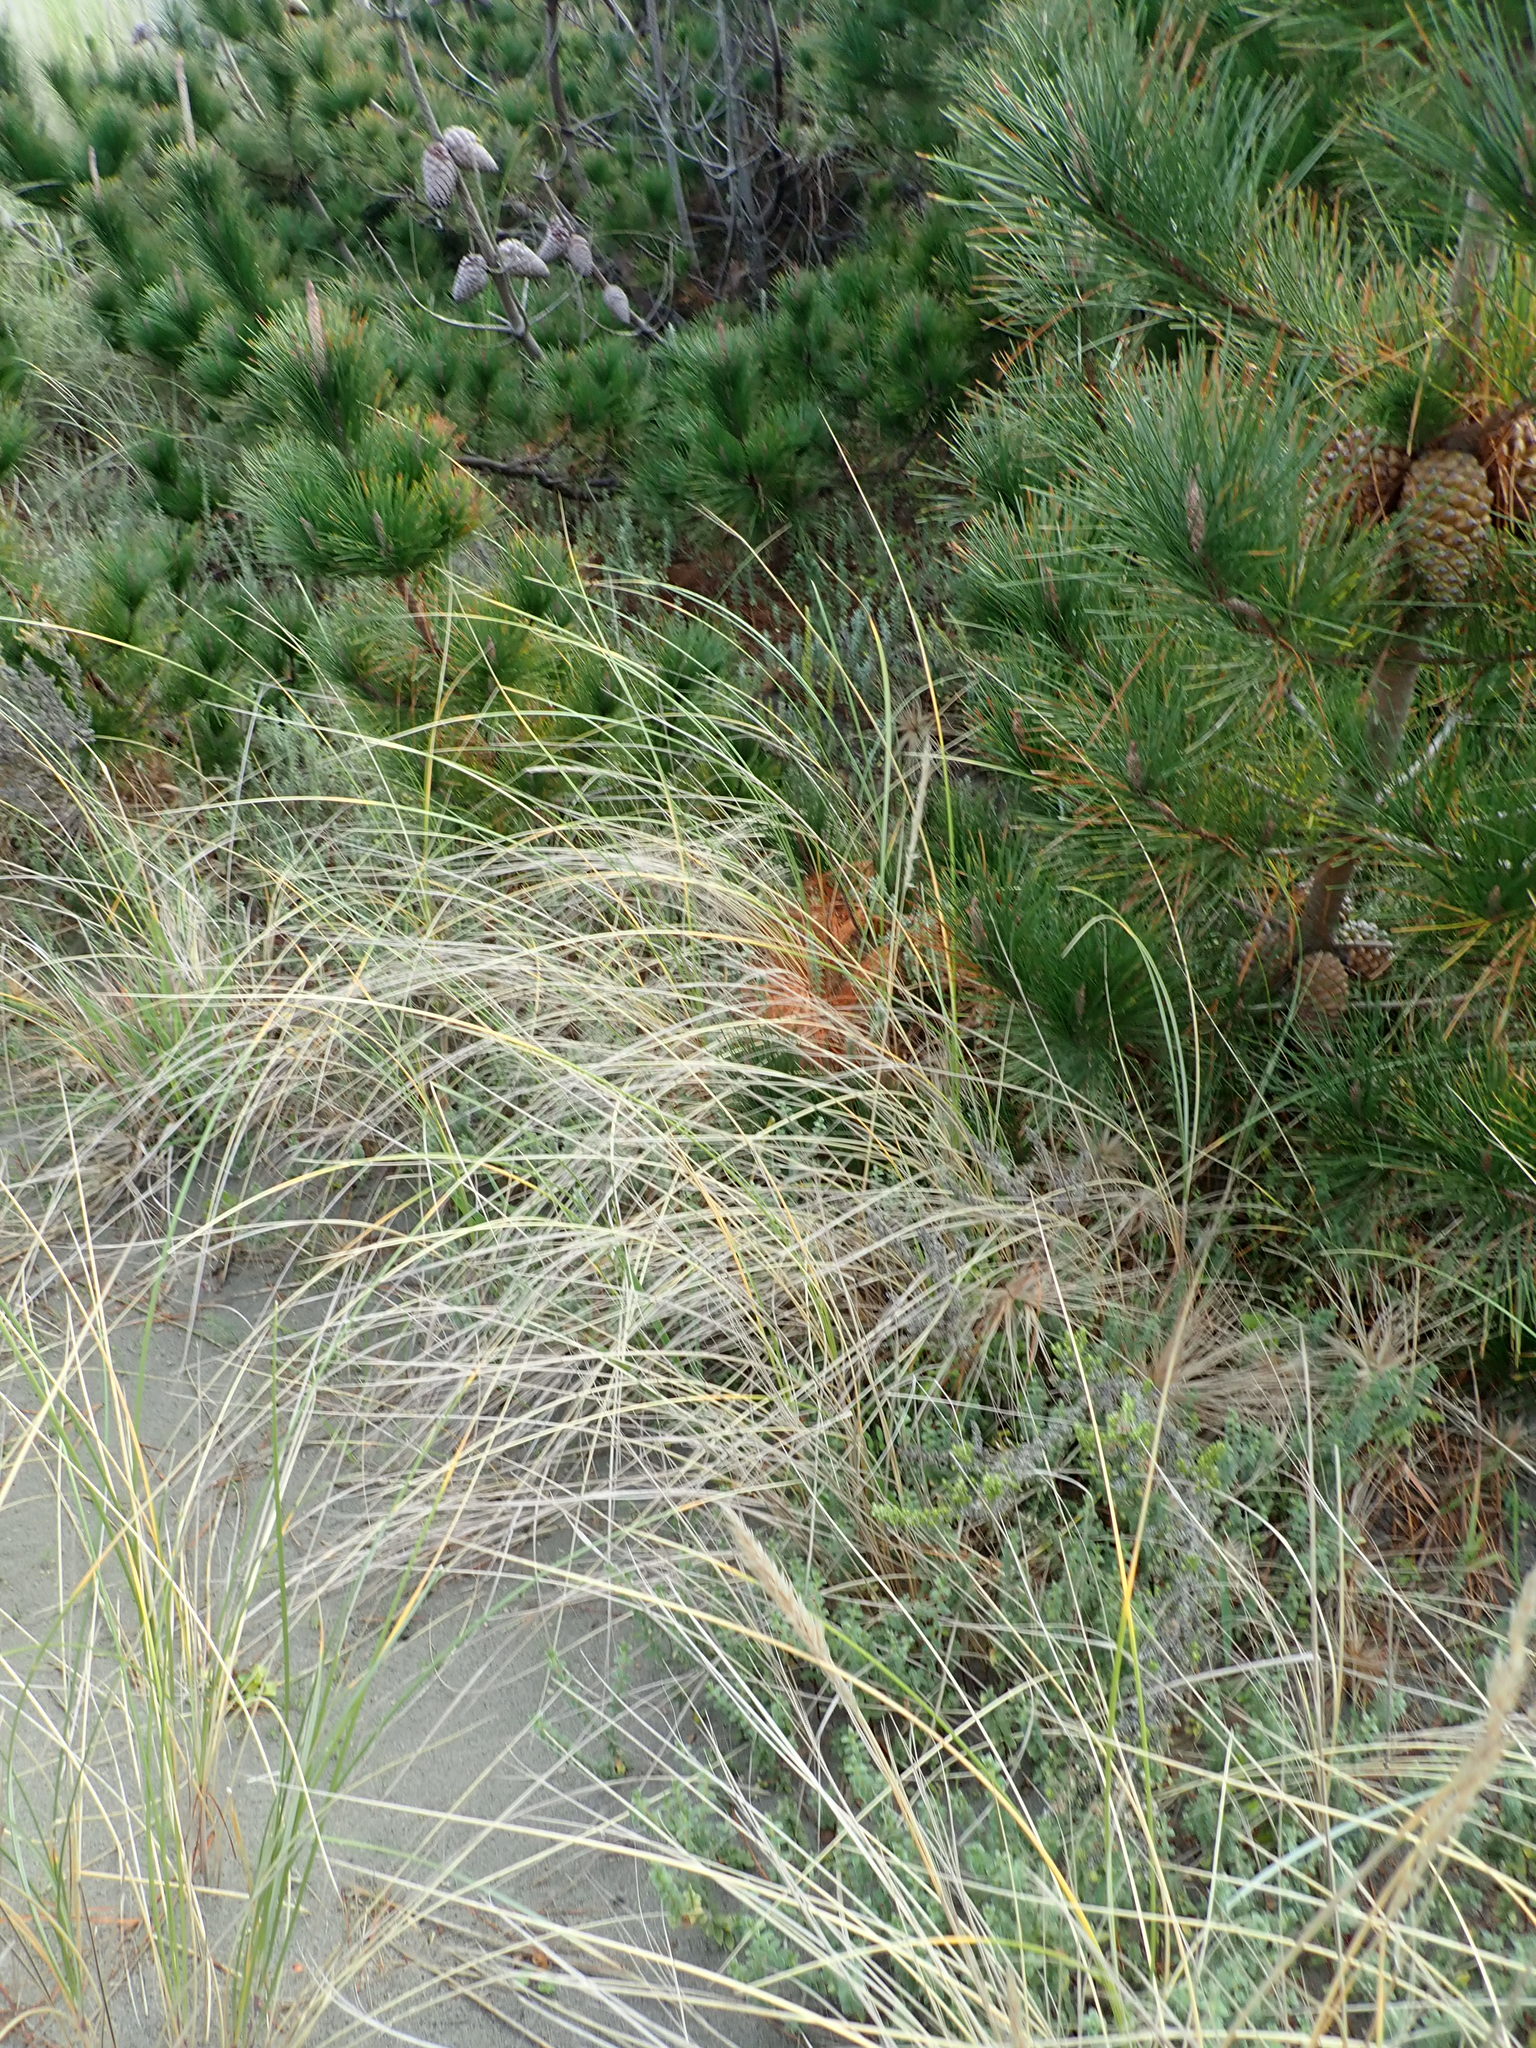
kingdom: Plantae
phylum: Tracheophyta
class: Pinopsida
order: Pinales
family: Pinaceae
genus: Pinus
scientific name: Pinus radiata
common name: Monterey pine
